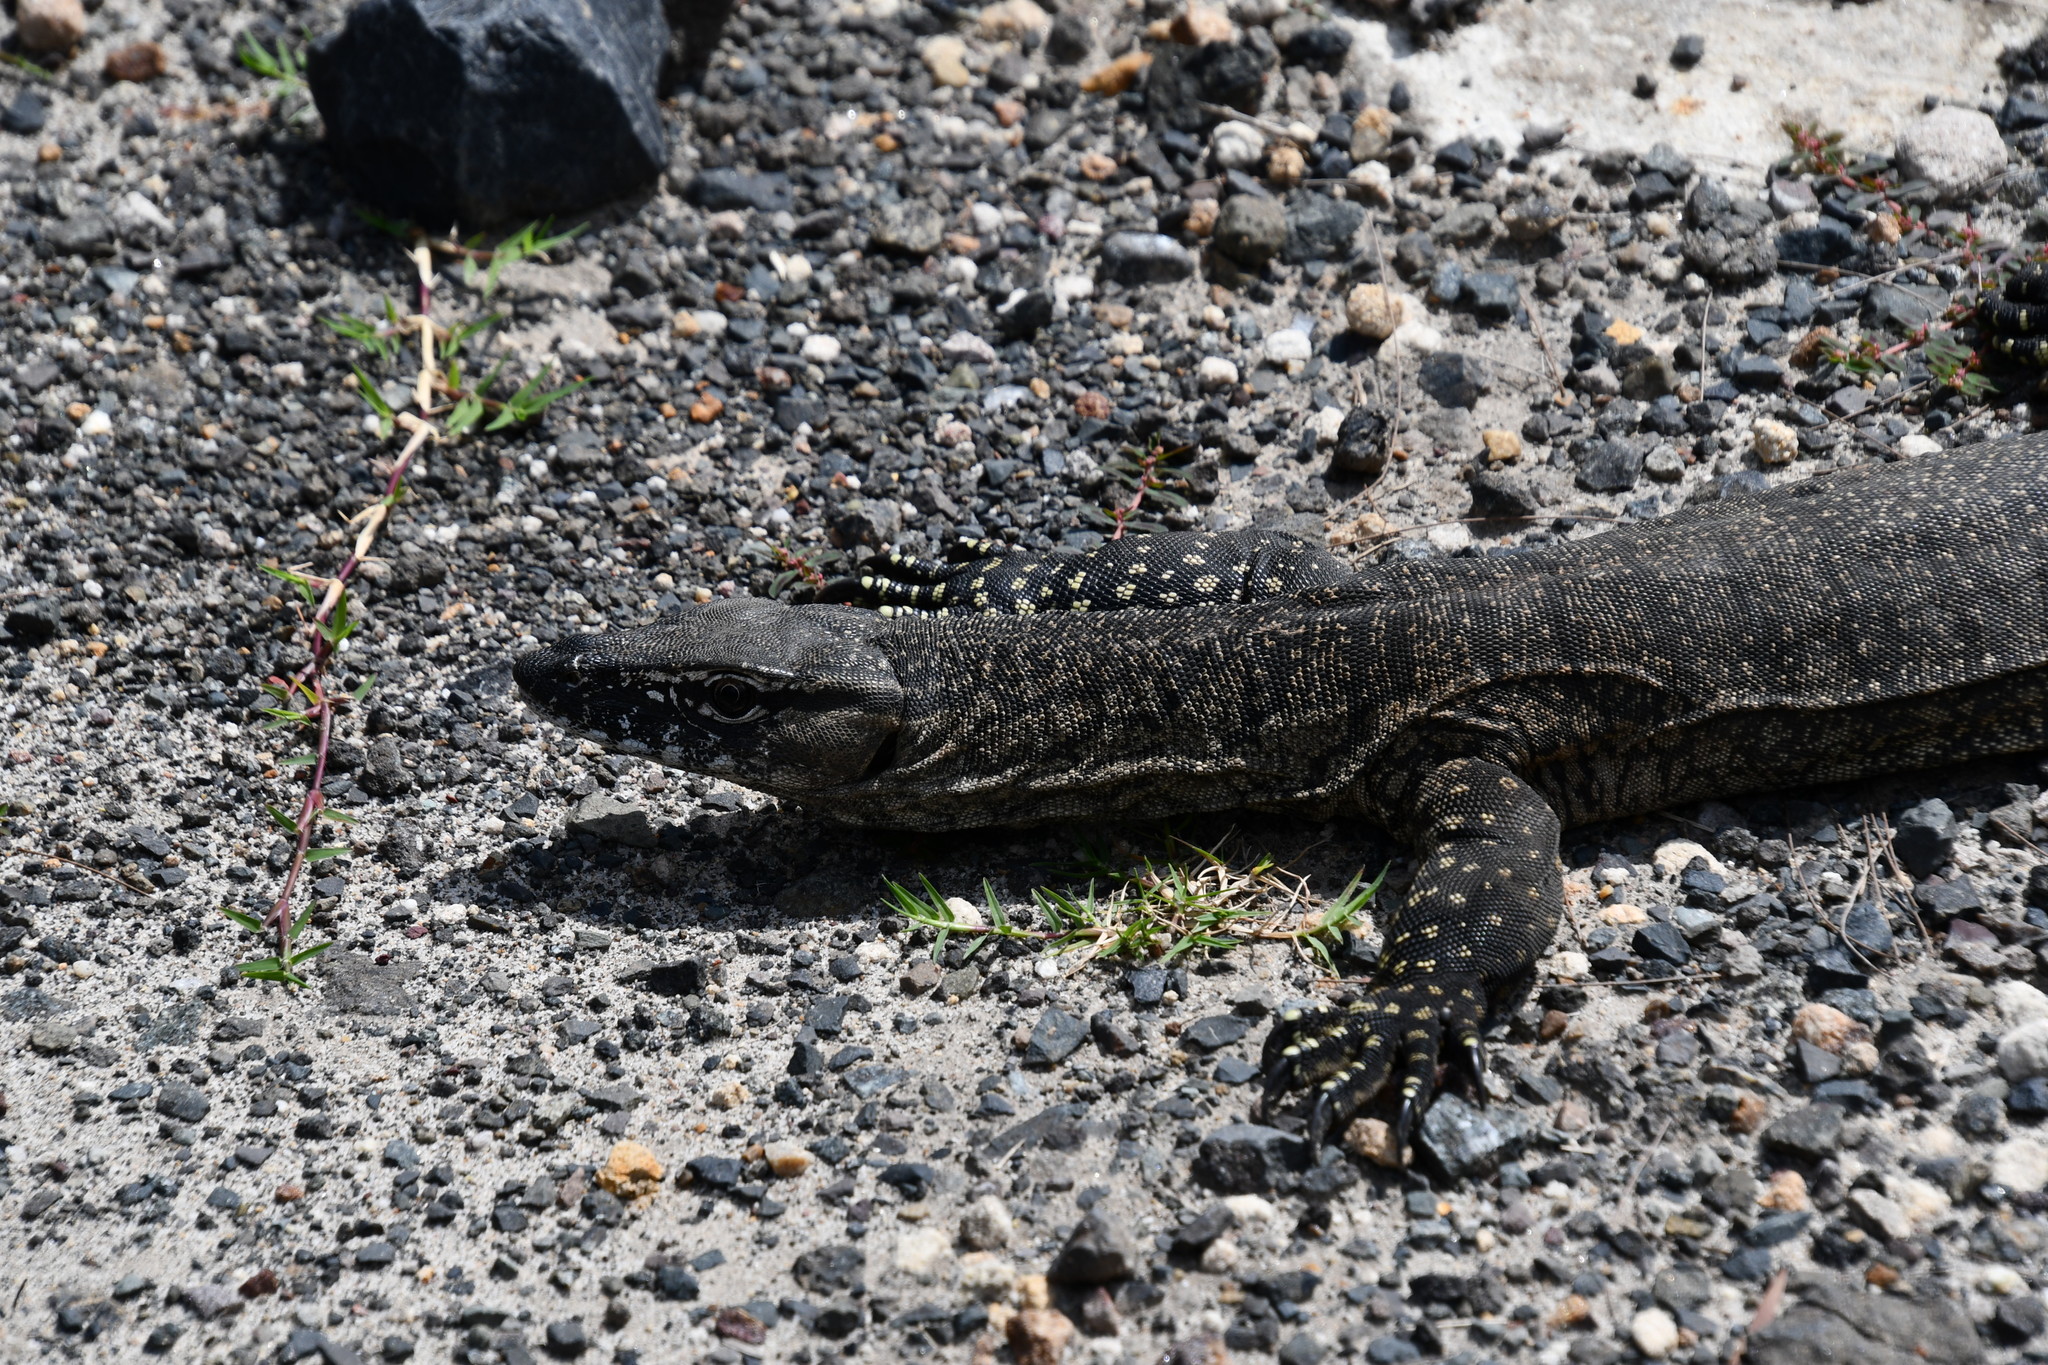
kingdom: Animalia
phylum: Chordata
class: Squamata
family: Varanidae
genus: Varanus
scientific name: Varanus rosenbergi
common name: Heath monitor
